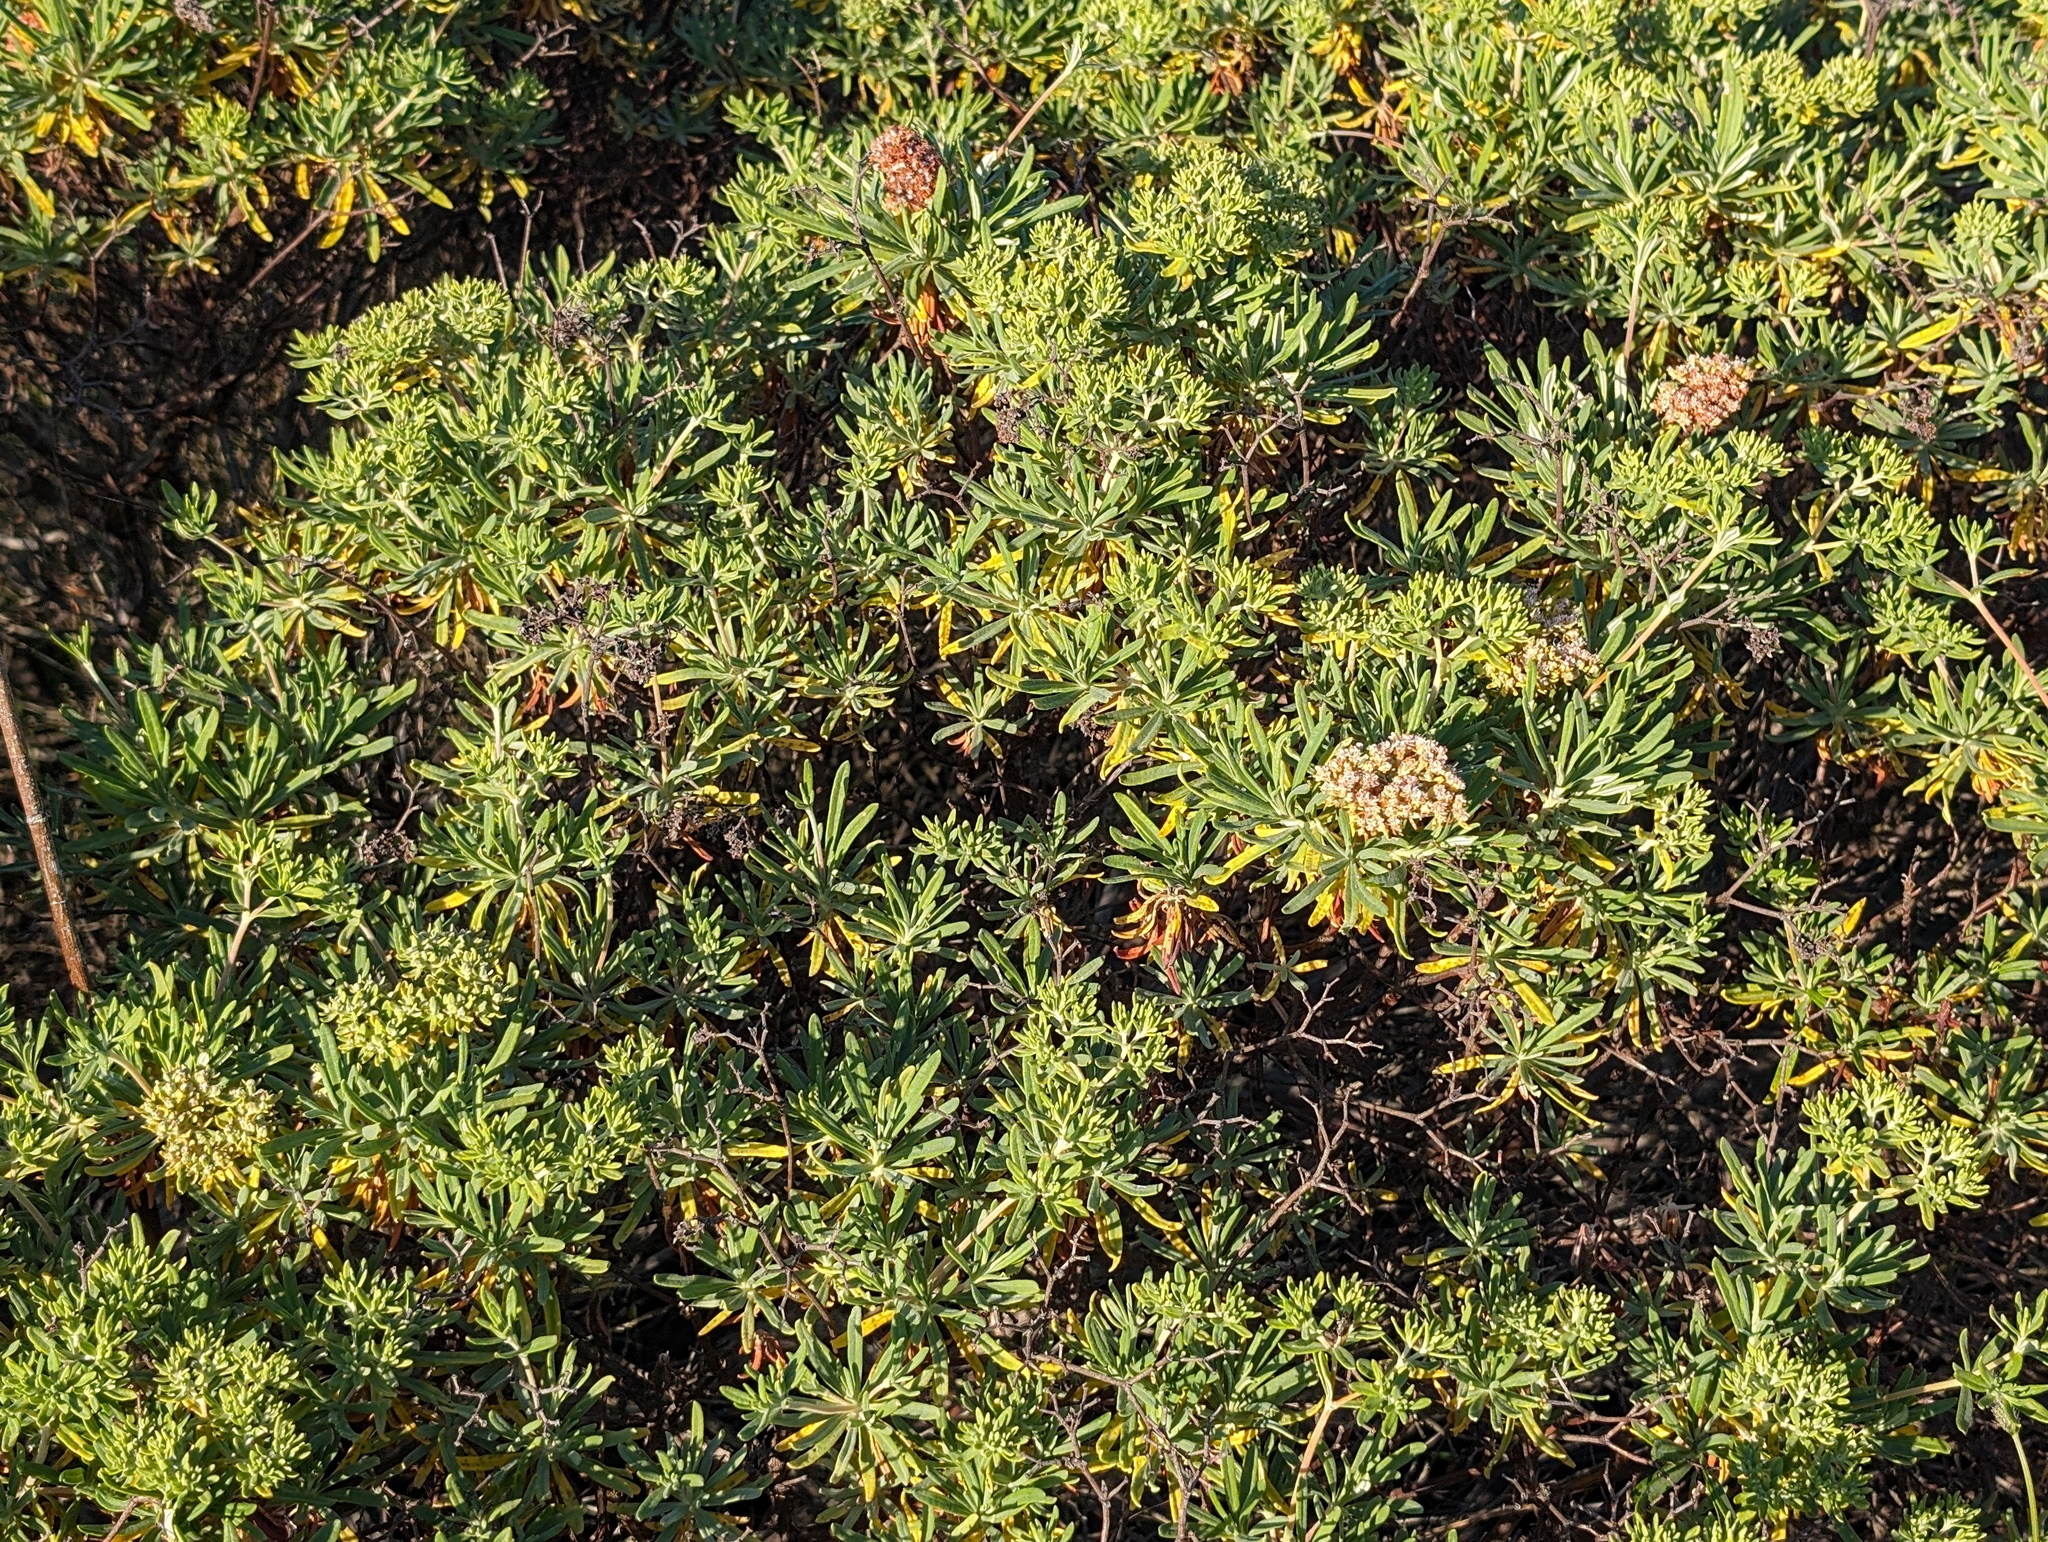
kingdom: Plantae
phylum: Tracheophyta
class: Magnoliopsida
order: Caryophyllales
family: Polygonaceae
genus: Eriogonum
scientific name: Eriogonum arborescens
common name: Island buckwheat
